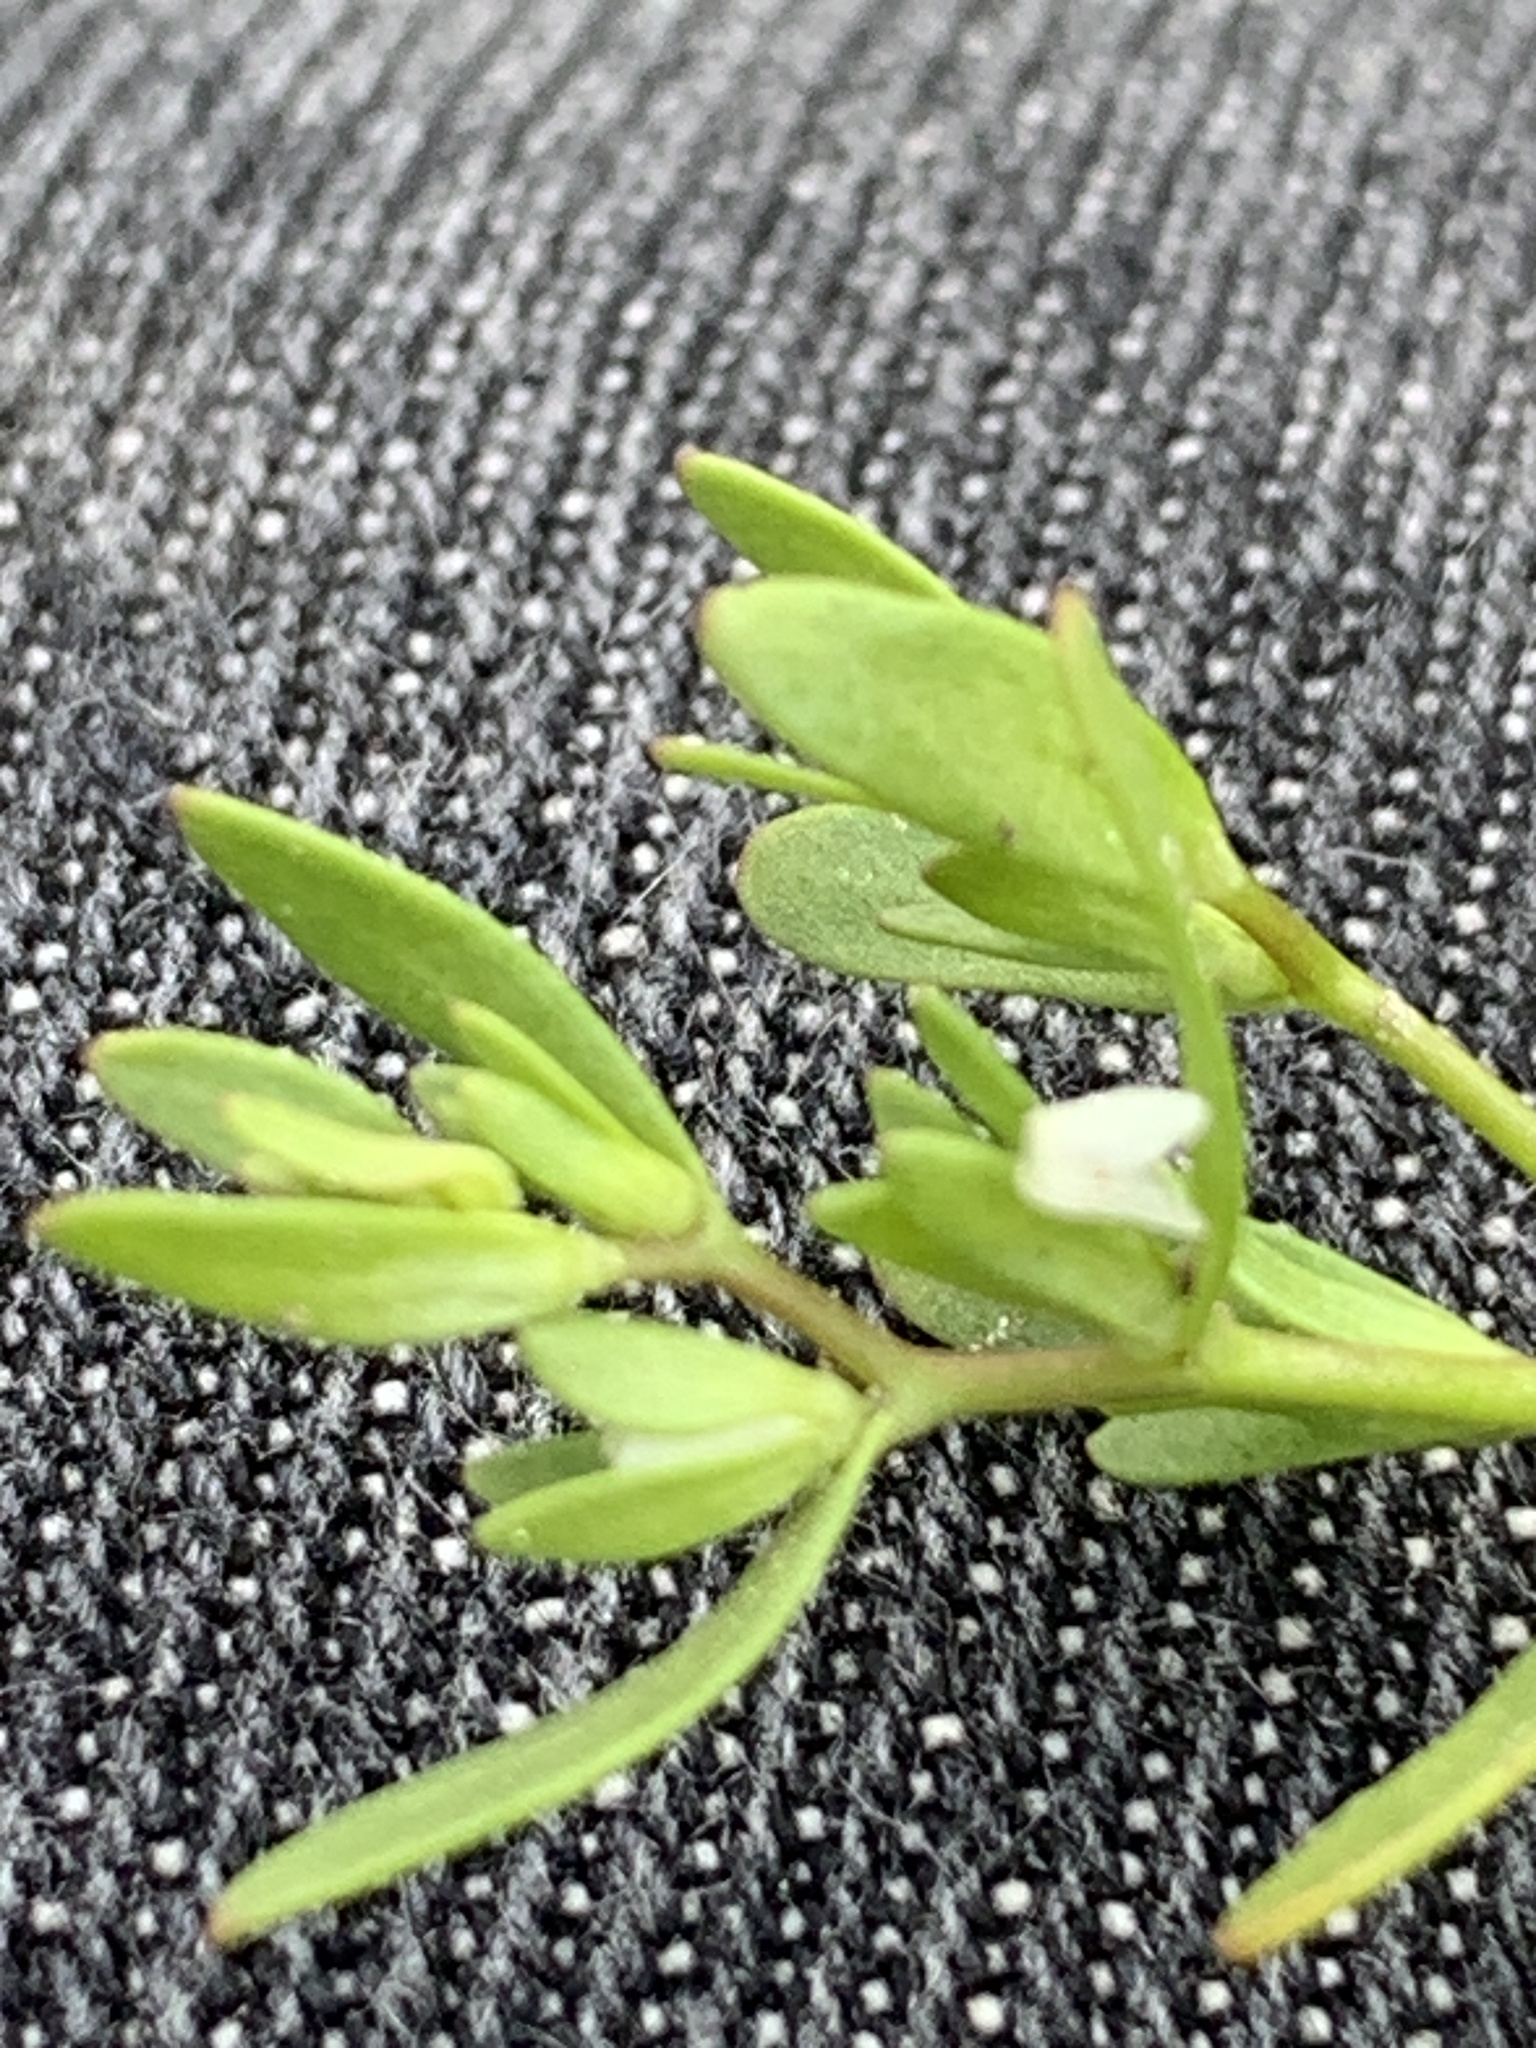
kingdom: Plantae
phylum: Tracheophyta
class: Magnoliopsida
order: Lamiales
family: Plantaginaceae
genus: Veronica
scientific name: Veronica peregrina
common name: Neckweed
